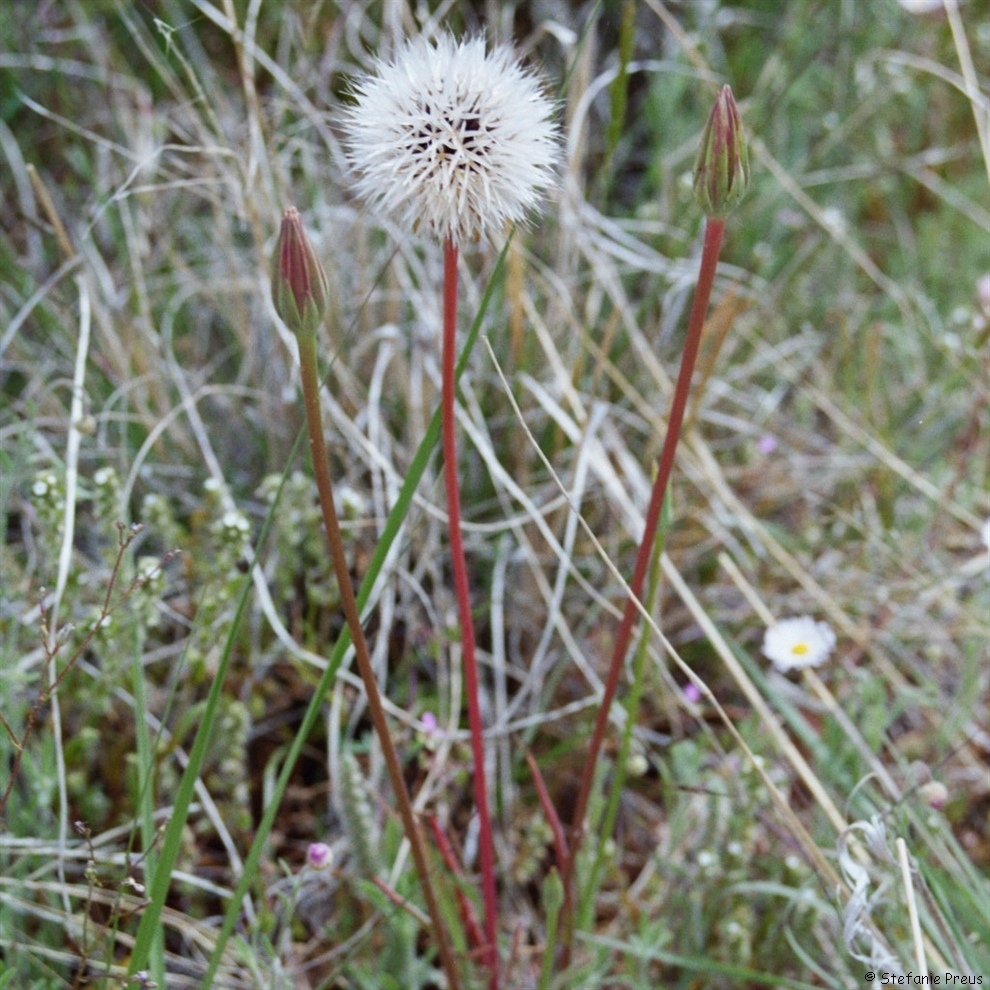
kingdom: Plantae
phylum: Tracheophyta
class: Magnoliopsida
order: Asterales
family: Asteraceae
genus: Microseris
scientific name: Microseris lindleyi
